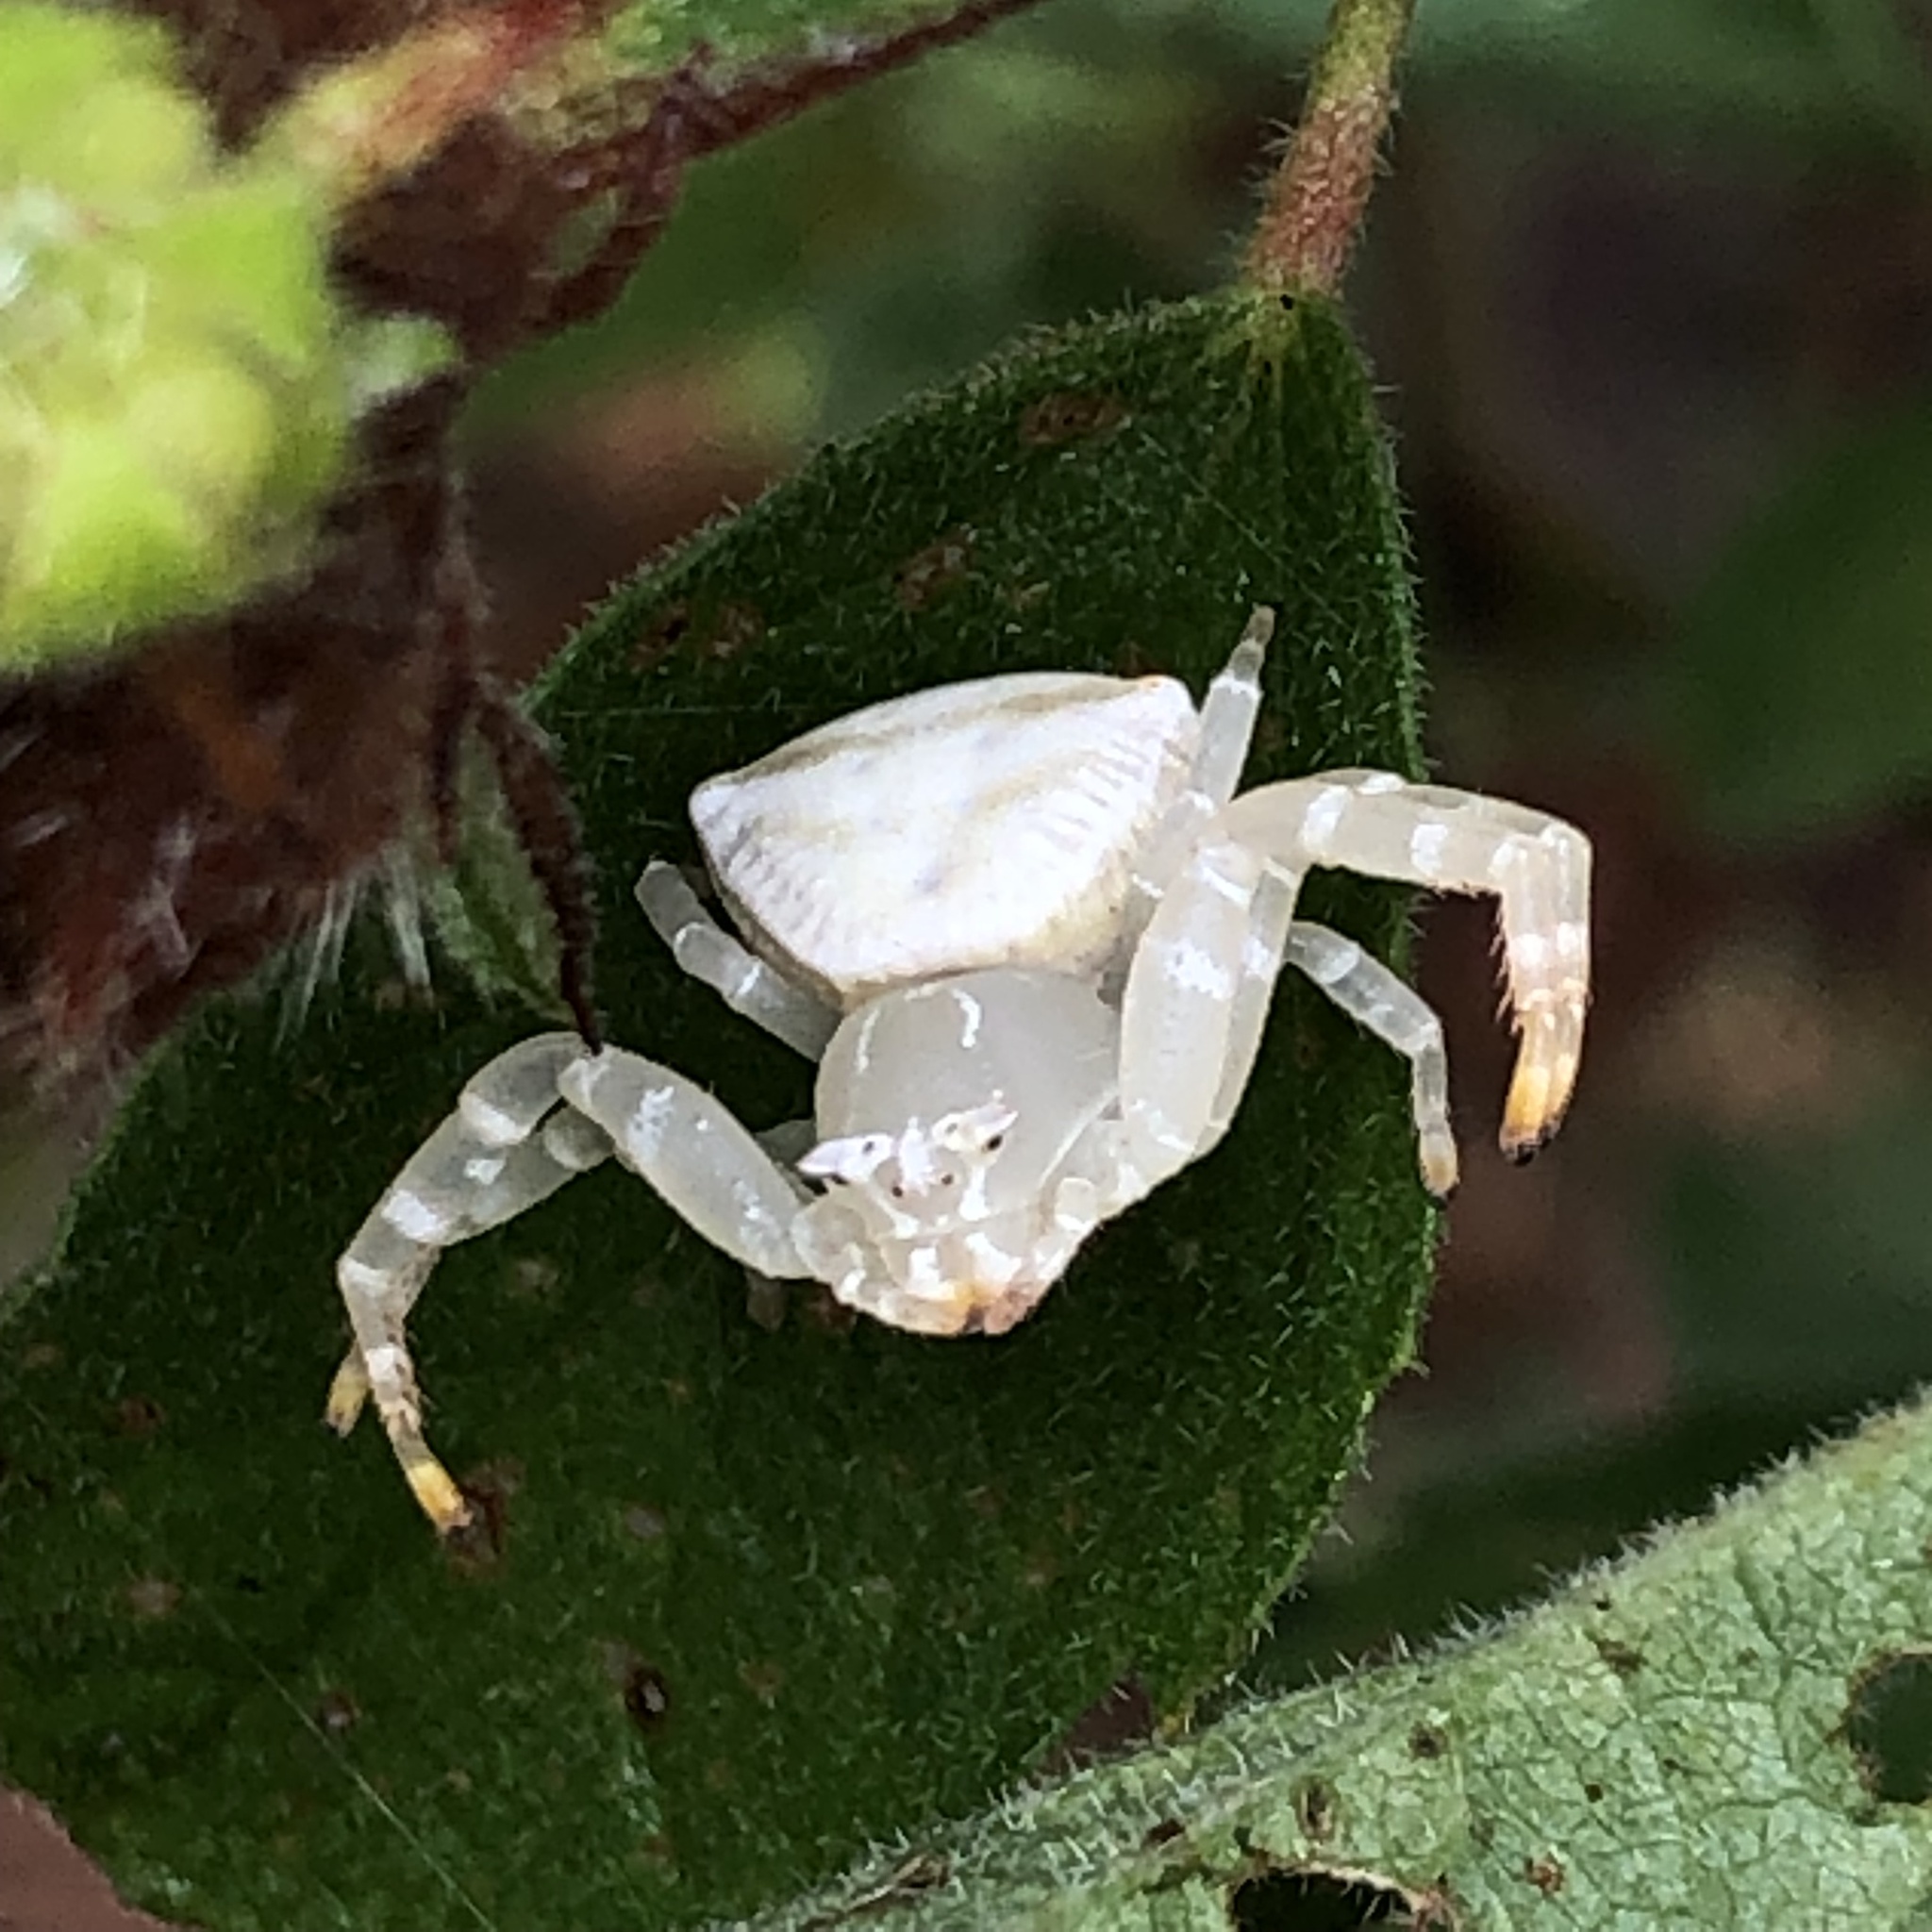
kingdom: Animalia
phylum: Arthropoda
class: Arachnida
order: Araneae
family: Thomisidae
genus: Thomisus
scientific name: Thomisus spectabilis
